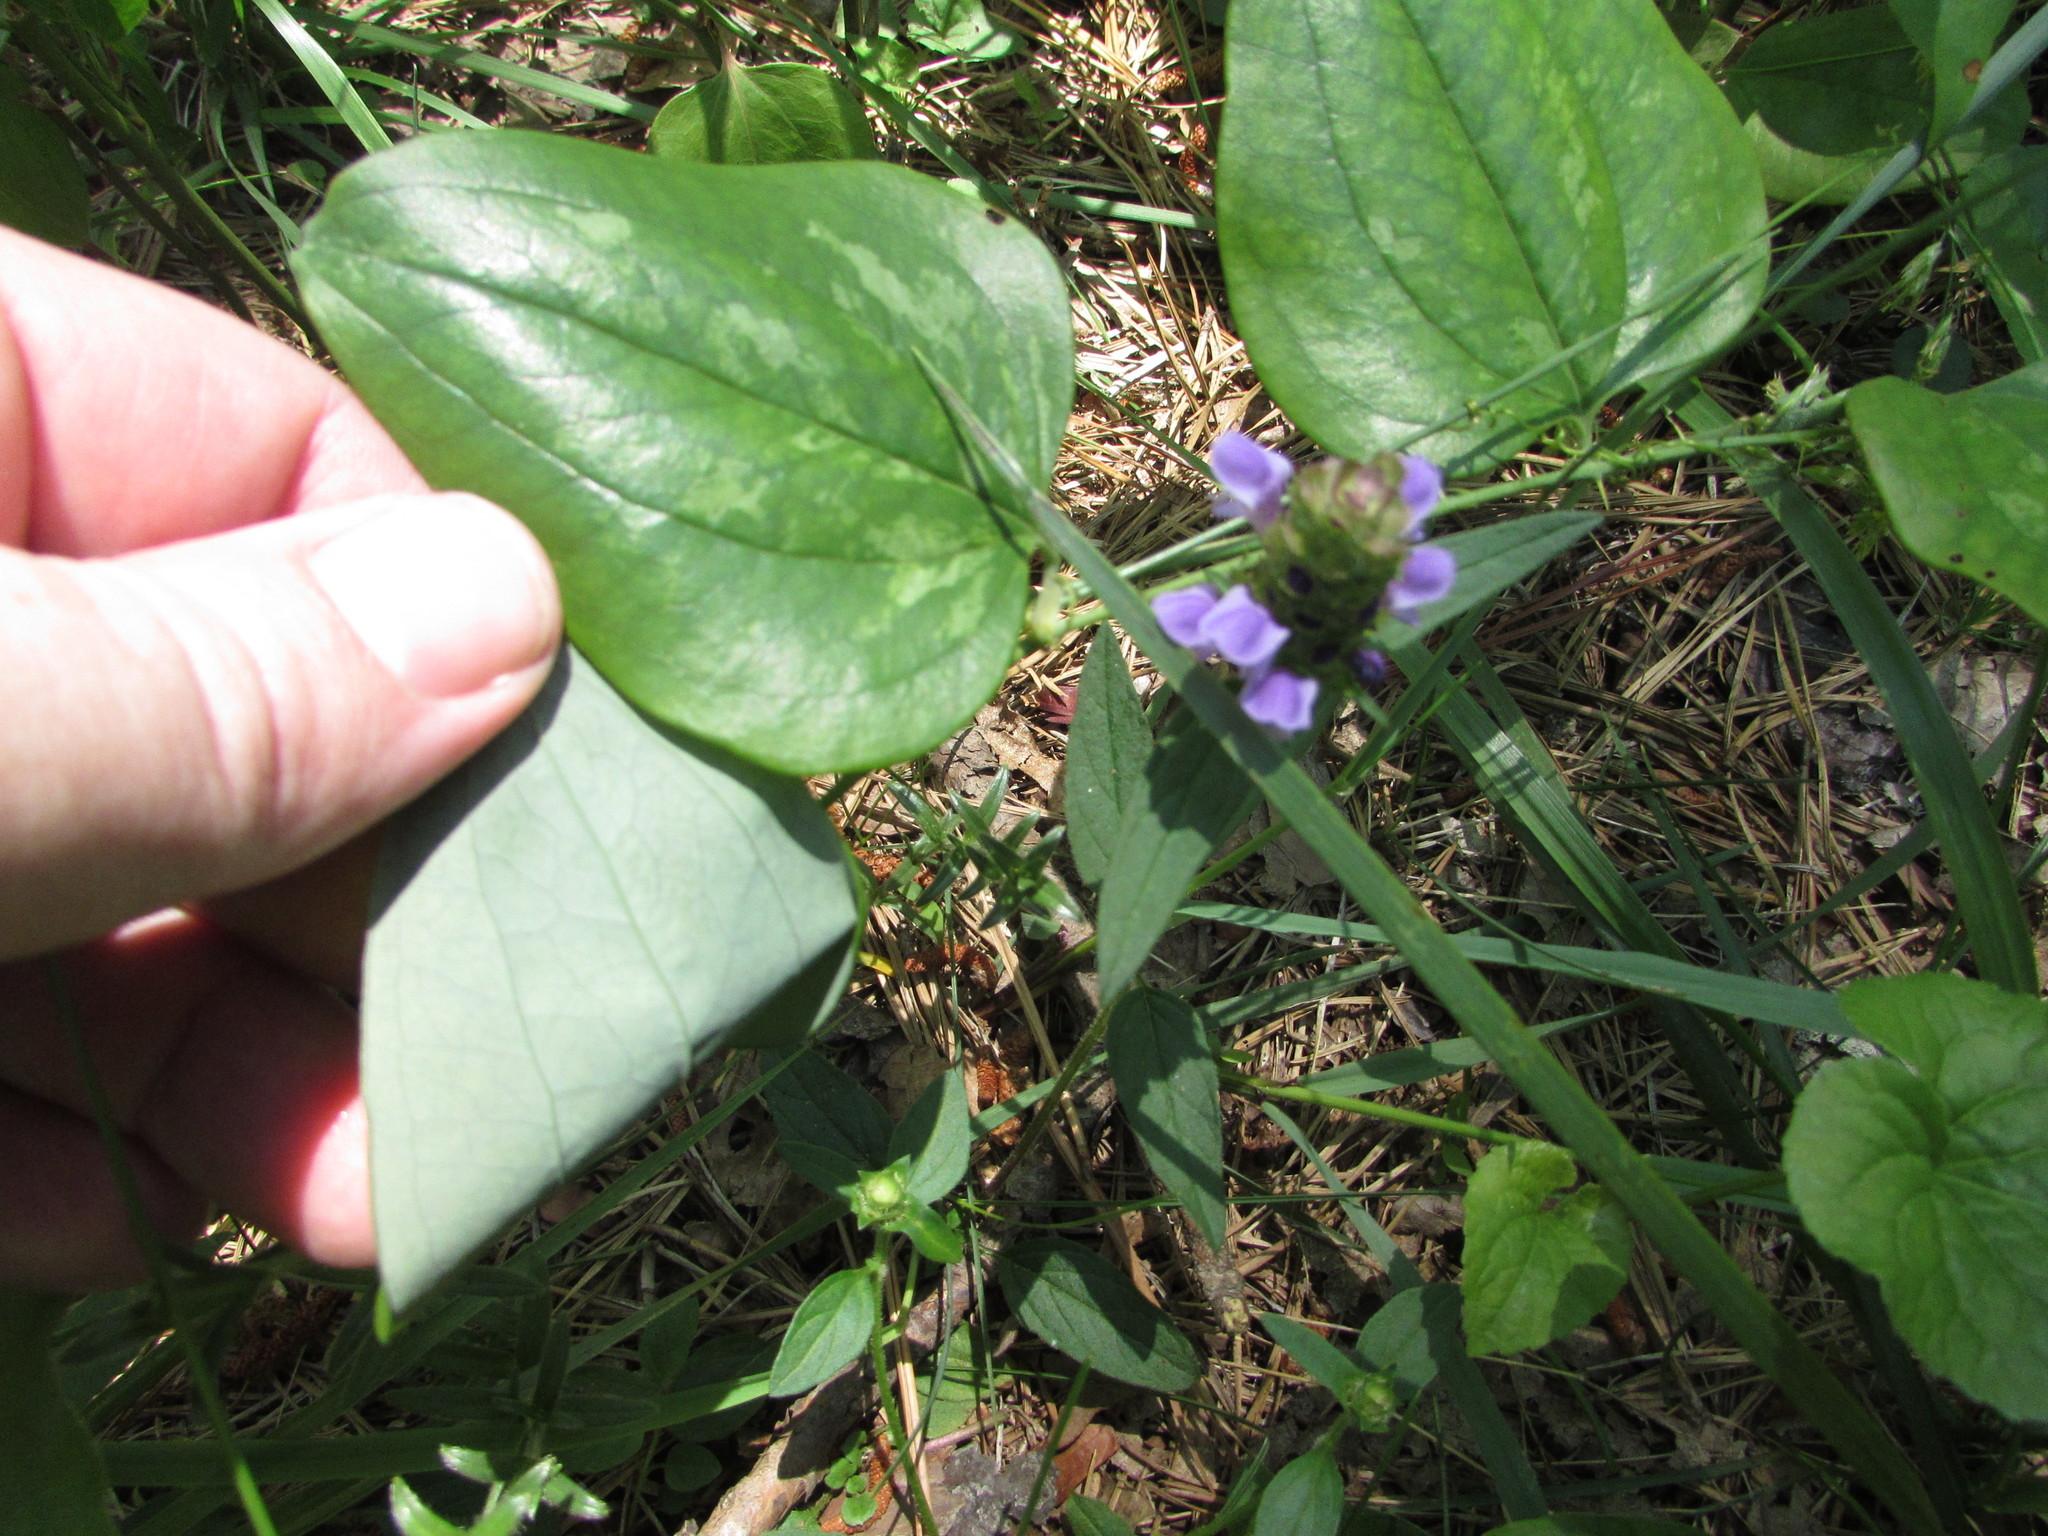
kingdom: Plantae
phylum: Tracheophyta
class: Magnoliopsida
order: Lamiales
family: Lamiaceae
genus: Prunella
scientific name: Prunella vulgaris
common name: Heal-all
